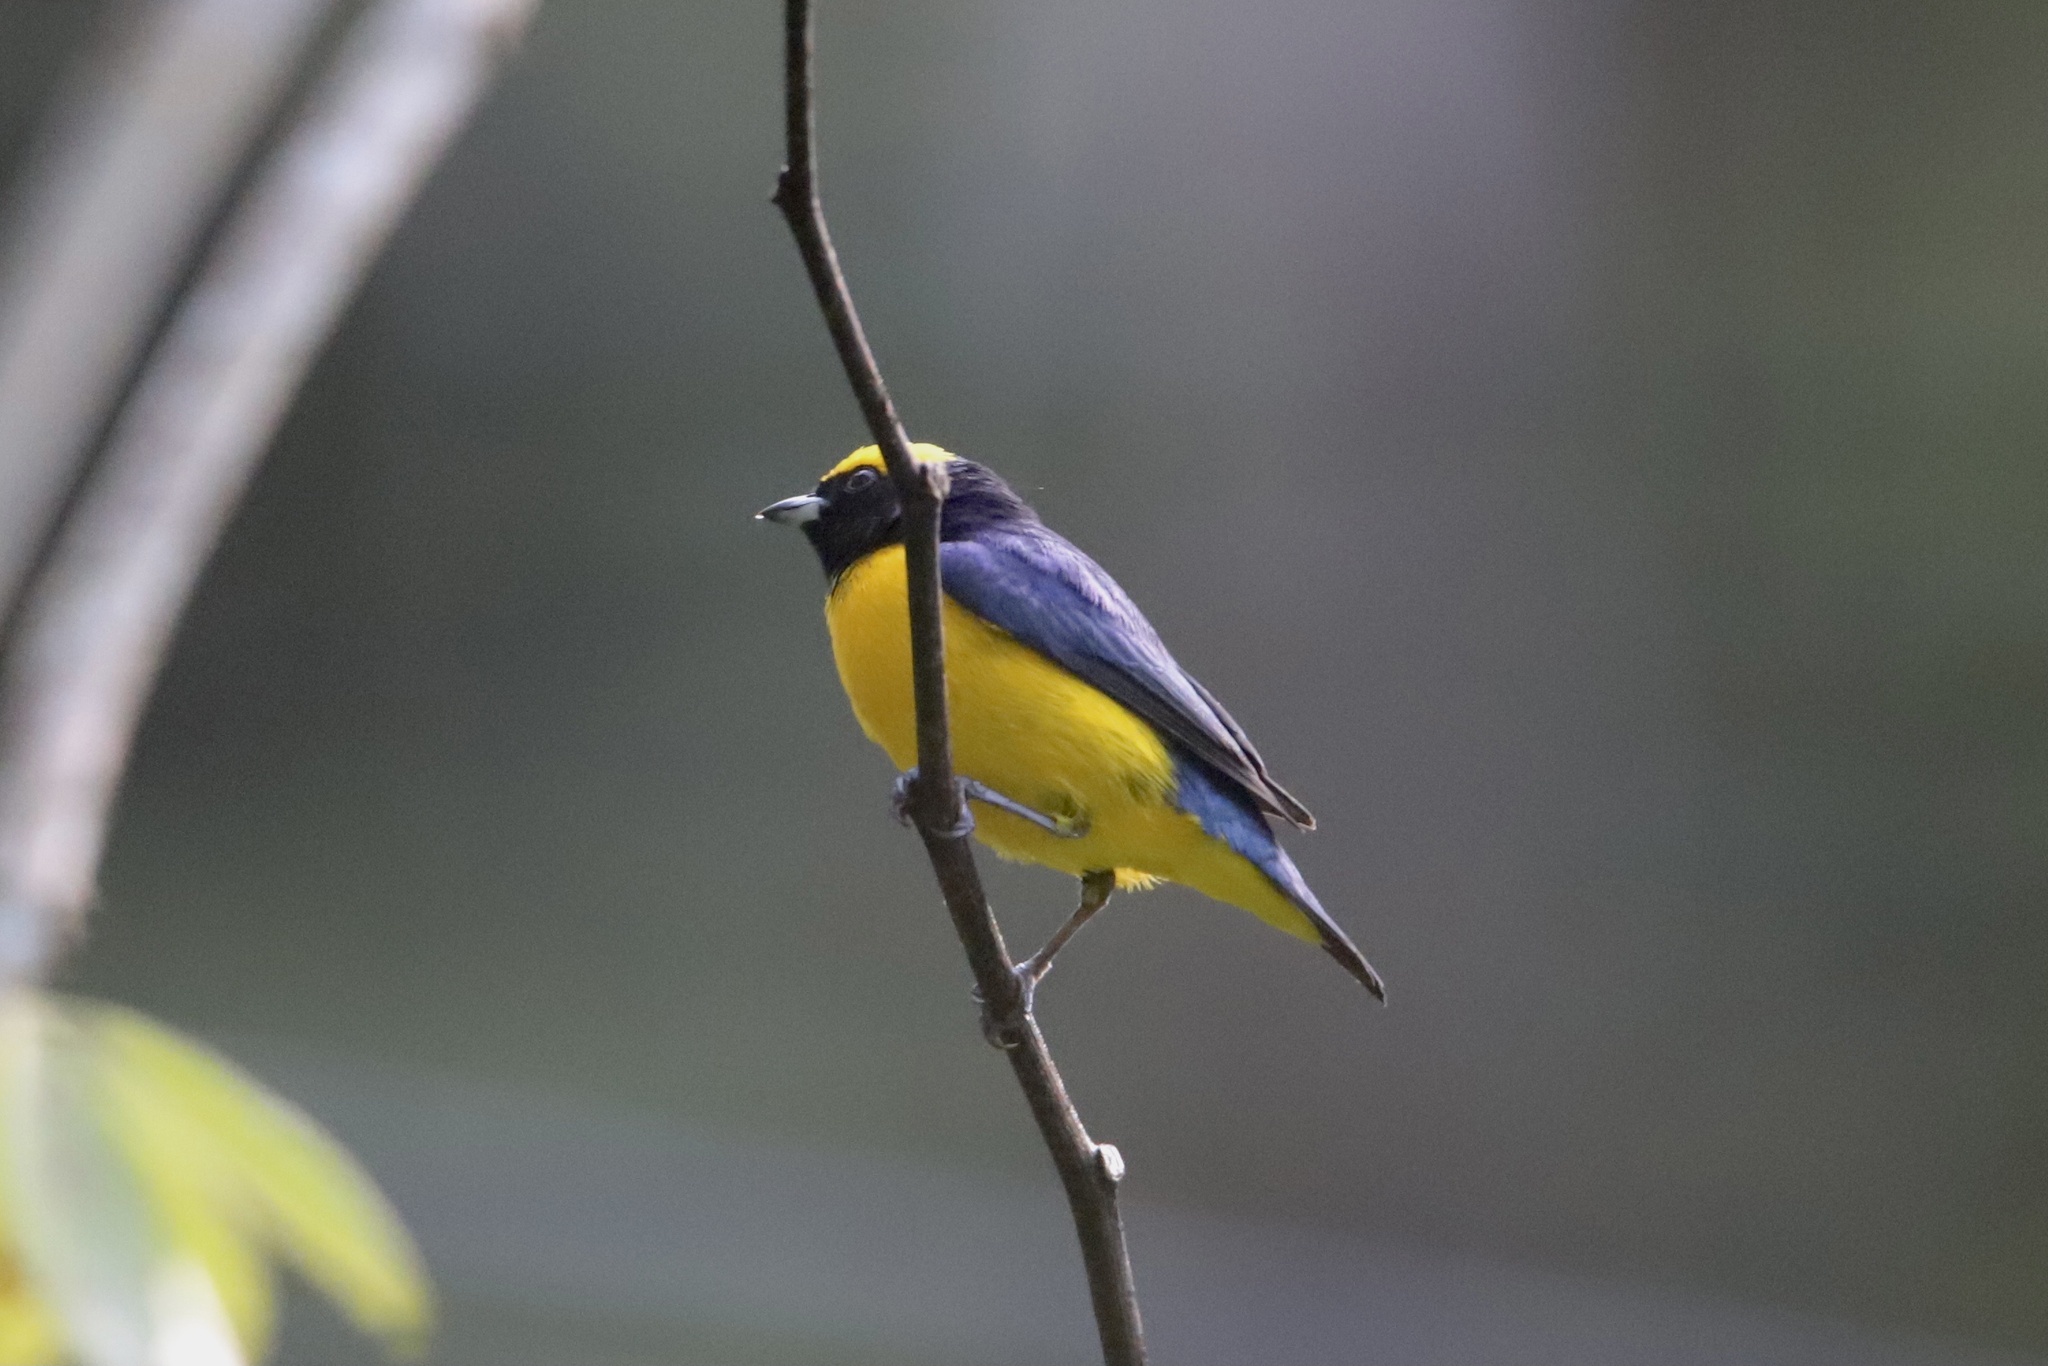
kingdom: Animalia
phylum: Chordata
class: Aves
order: Passeriformes
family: Fringillidae
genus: Euphonia
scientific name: Euphonia luteicapilla
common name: Yellow-crowned euphonia
